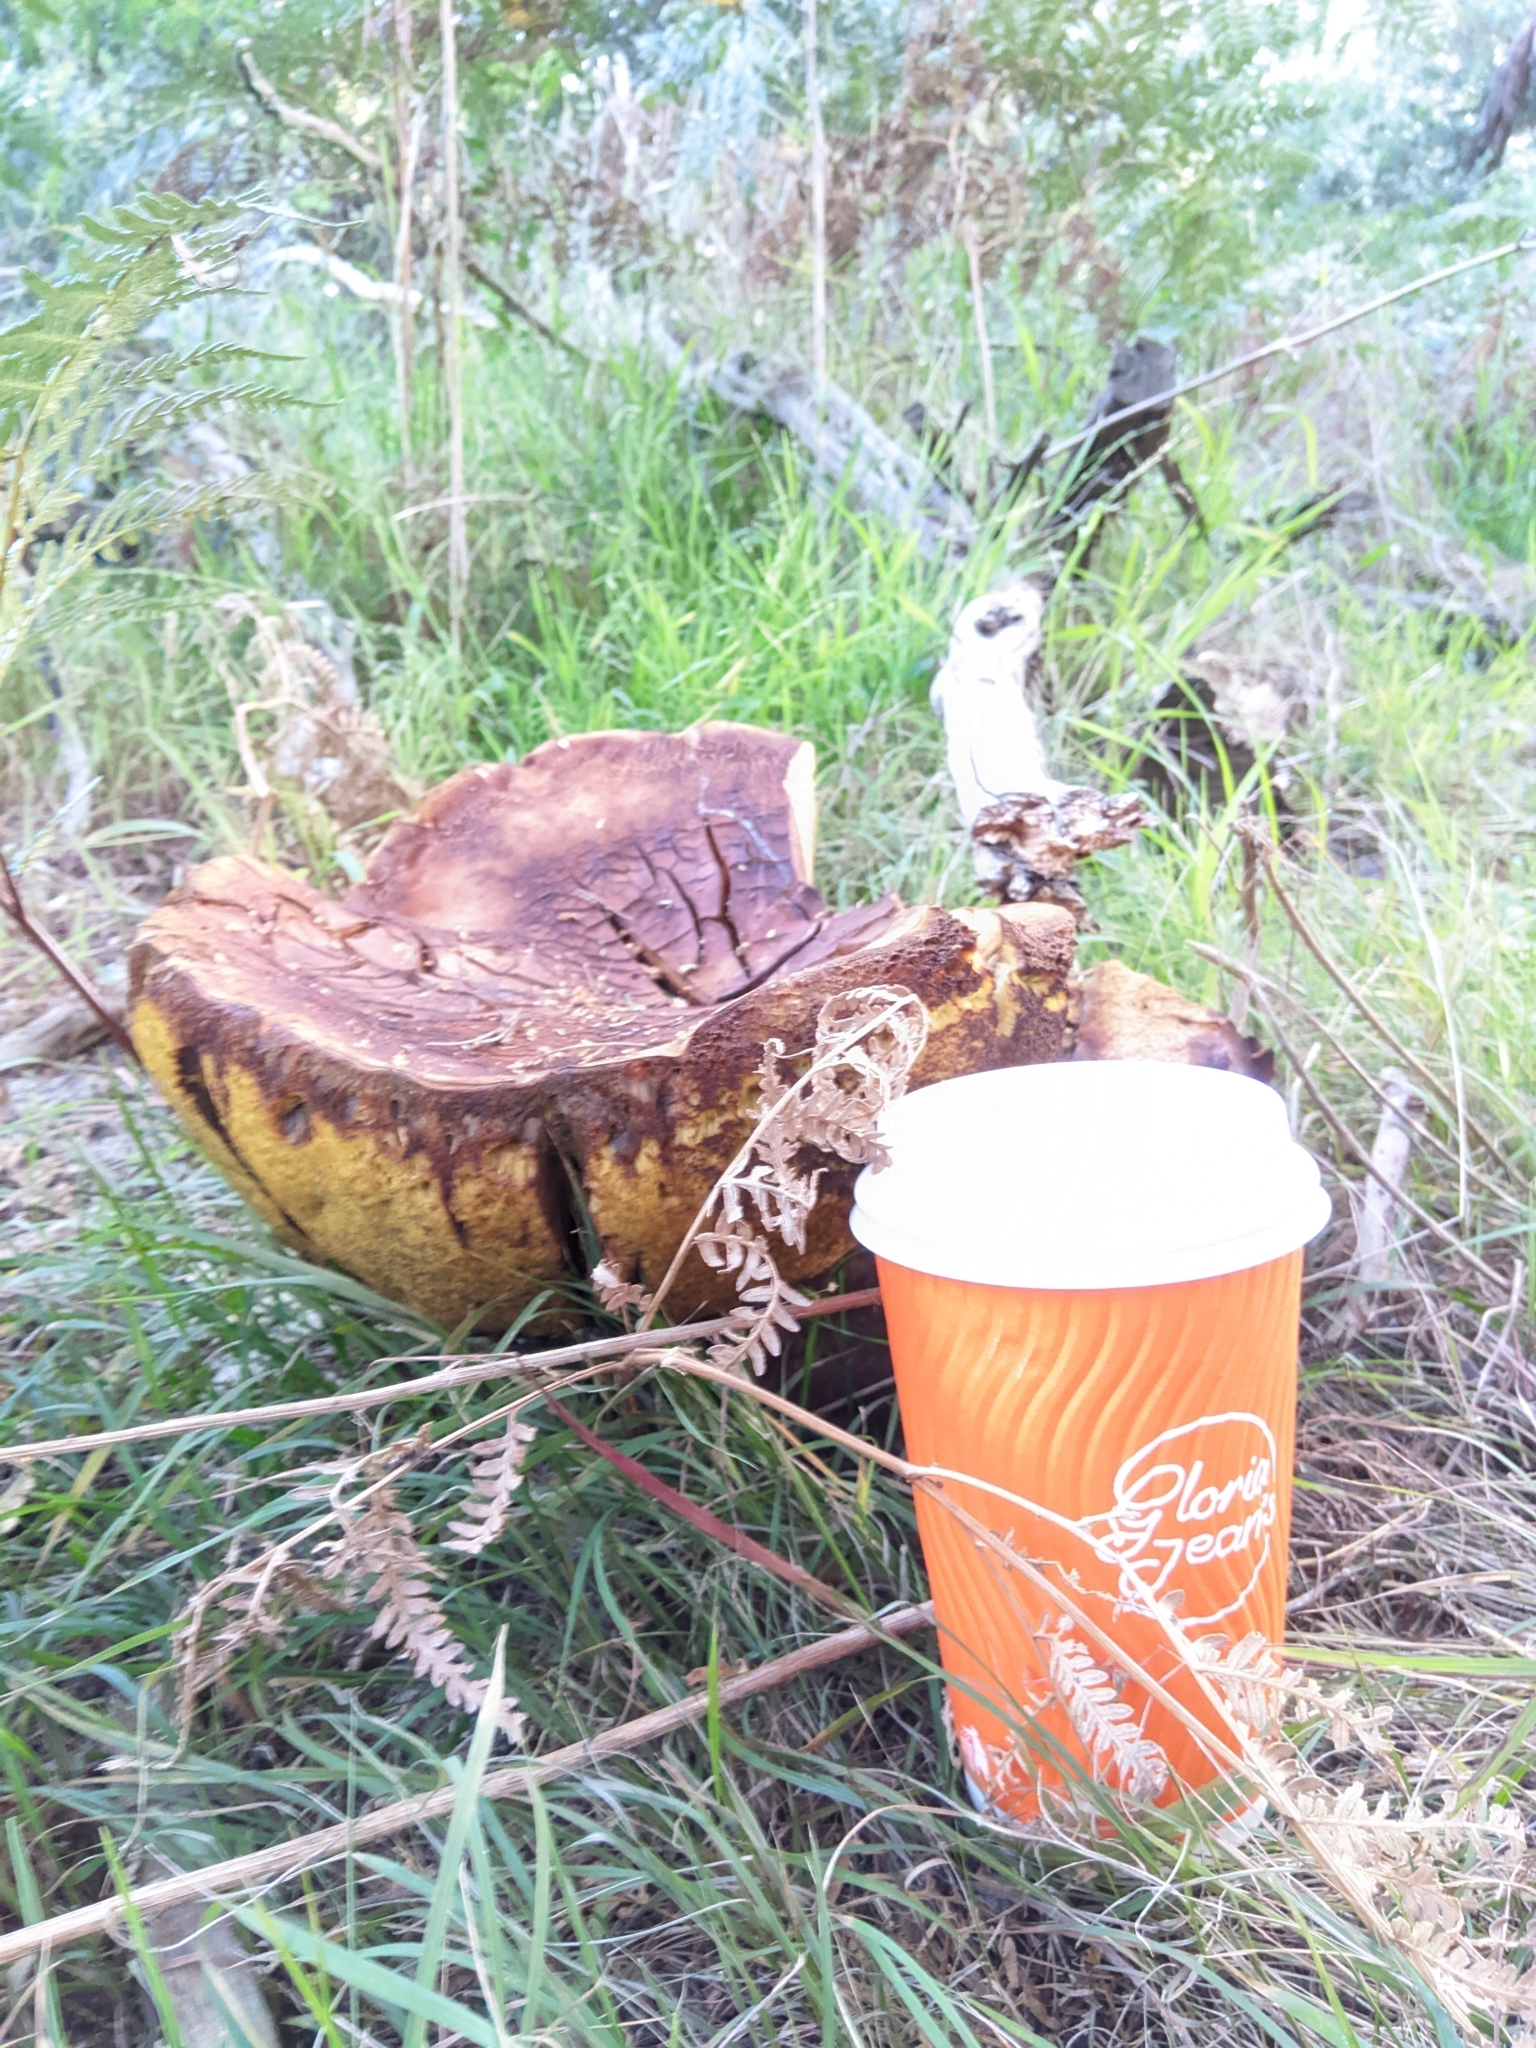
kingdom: Fungi
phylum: Basidiomycota
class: Agaricomycetes
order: Boletales
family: Boletinellaceae
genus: Phlebopus
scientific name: Phlebopus marginatus
